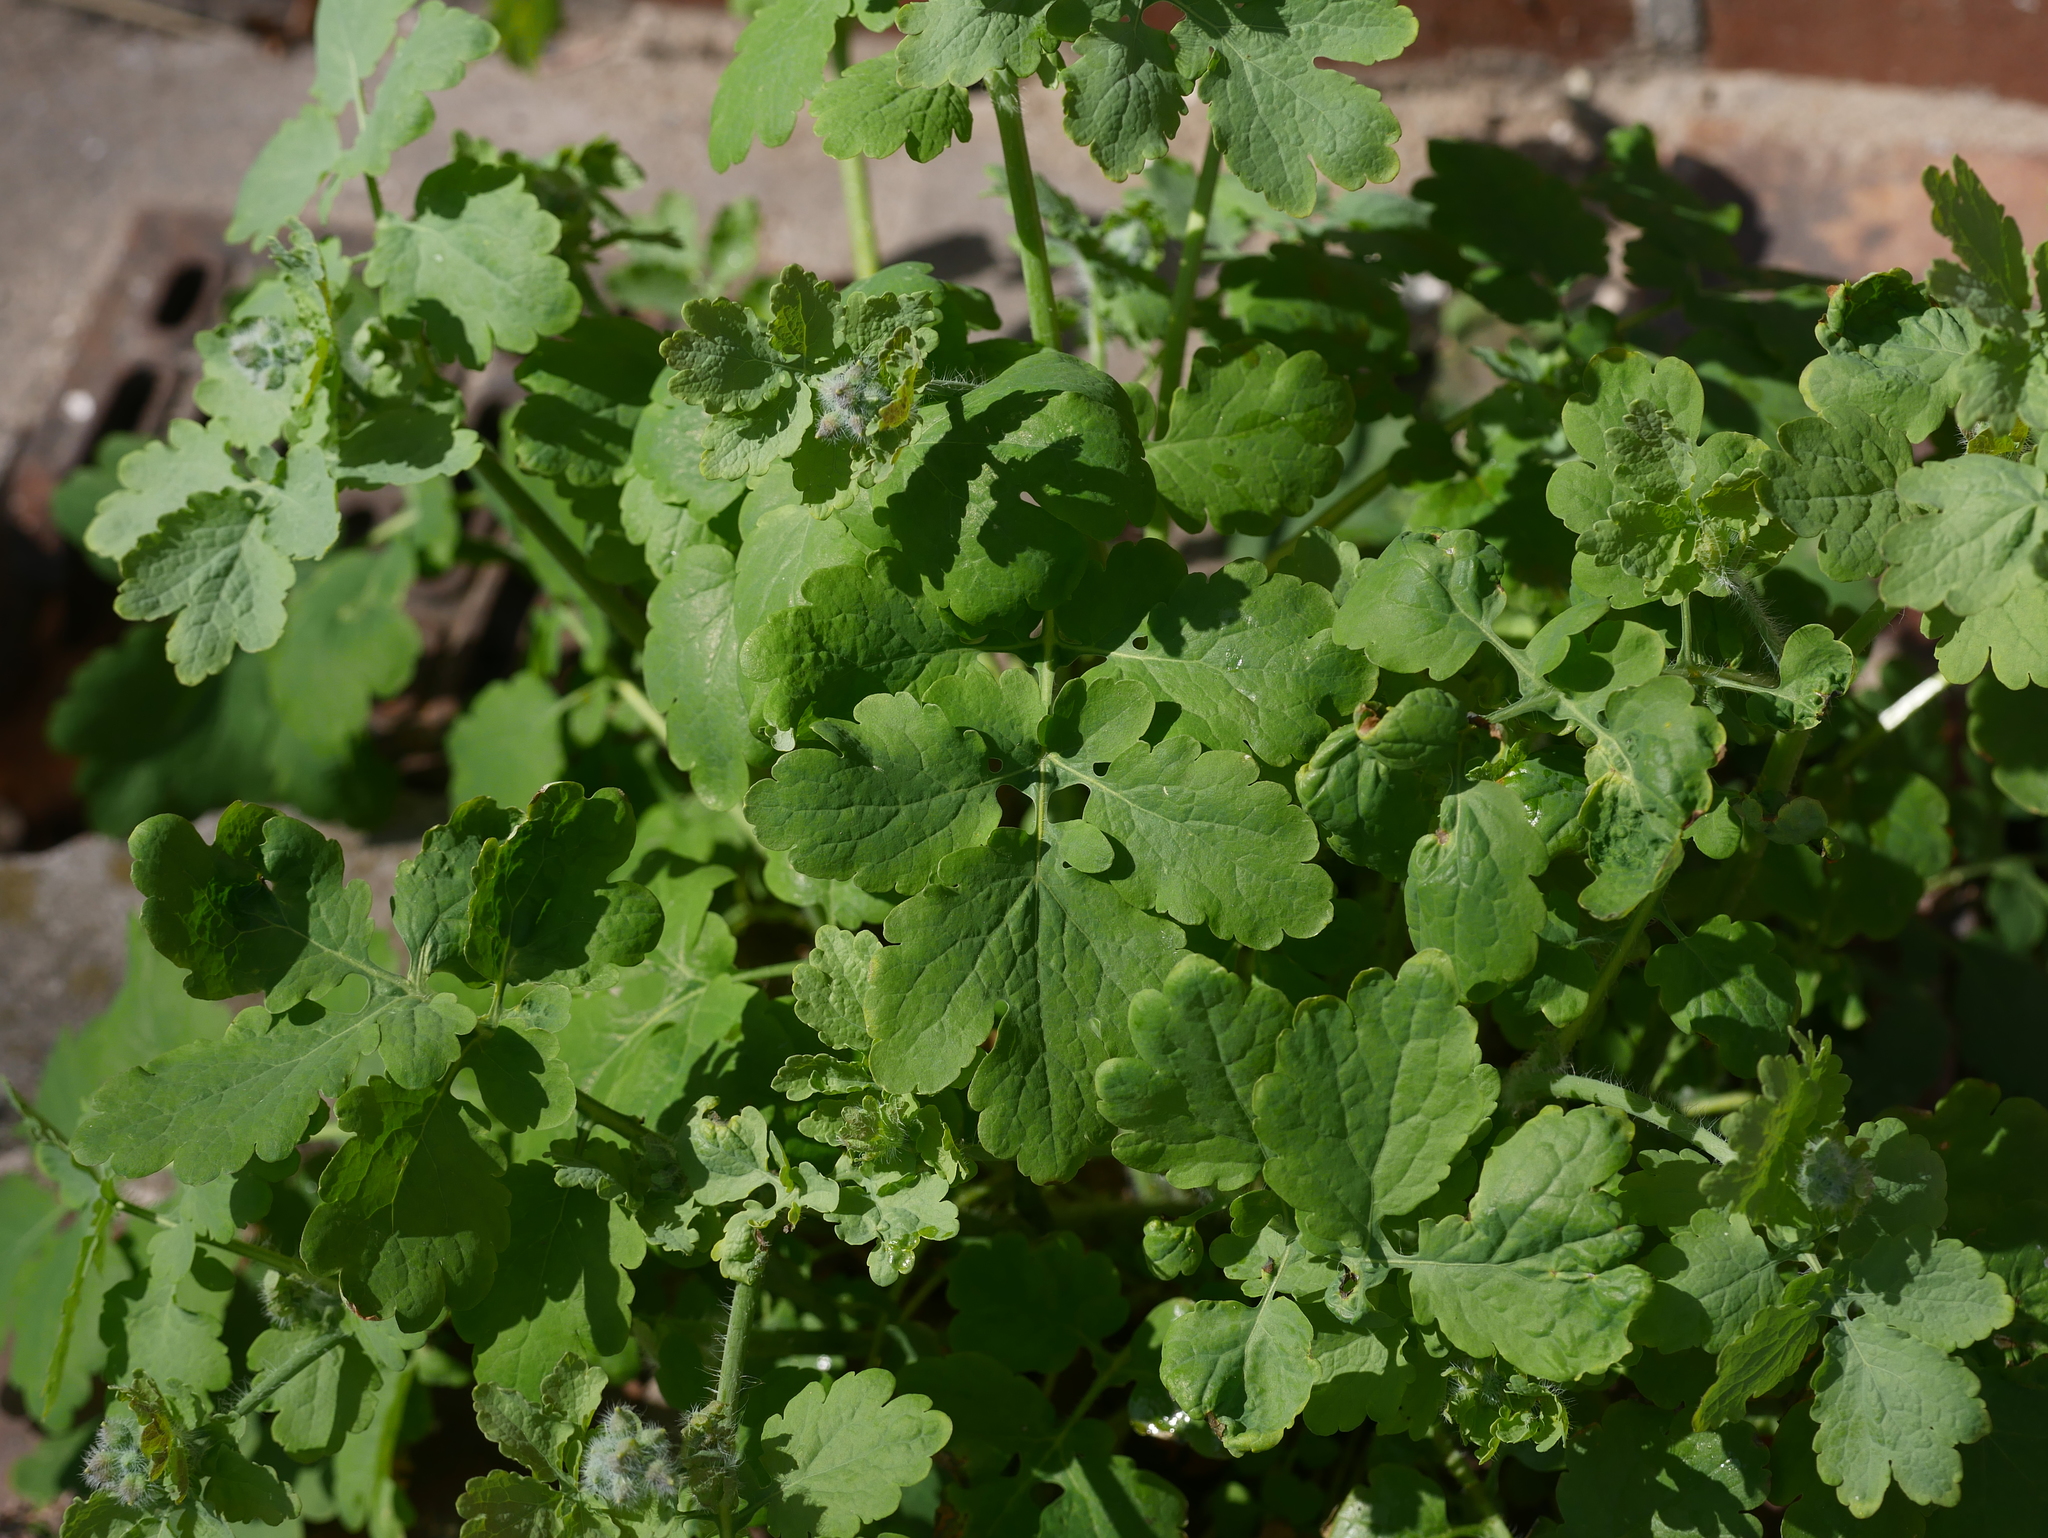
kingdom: Plantae
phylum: Tracheophyta
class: Magnoliopsida
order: Ranunculales
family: Papaveraceae
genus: Chelidonium
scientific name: Chelidonium majus
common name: Greater celandine
